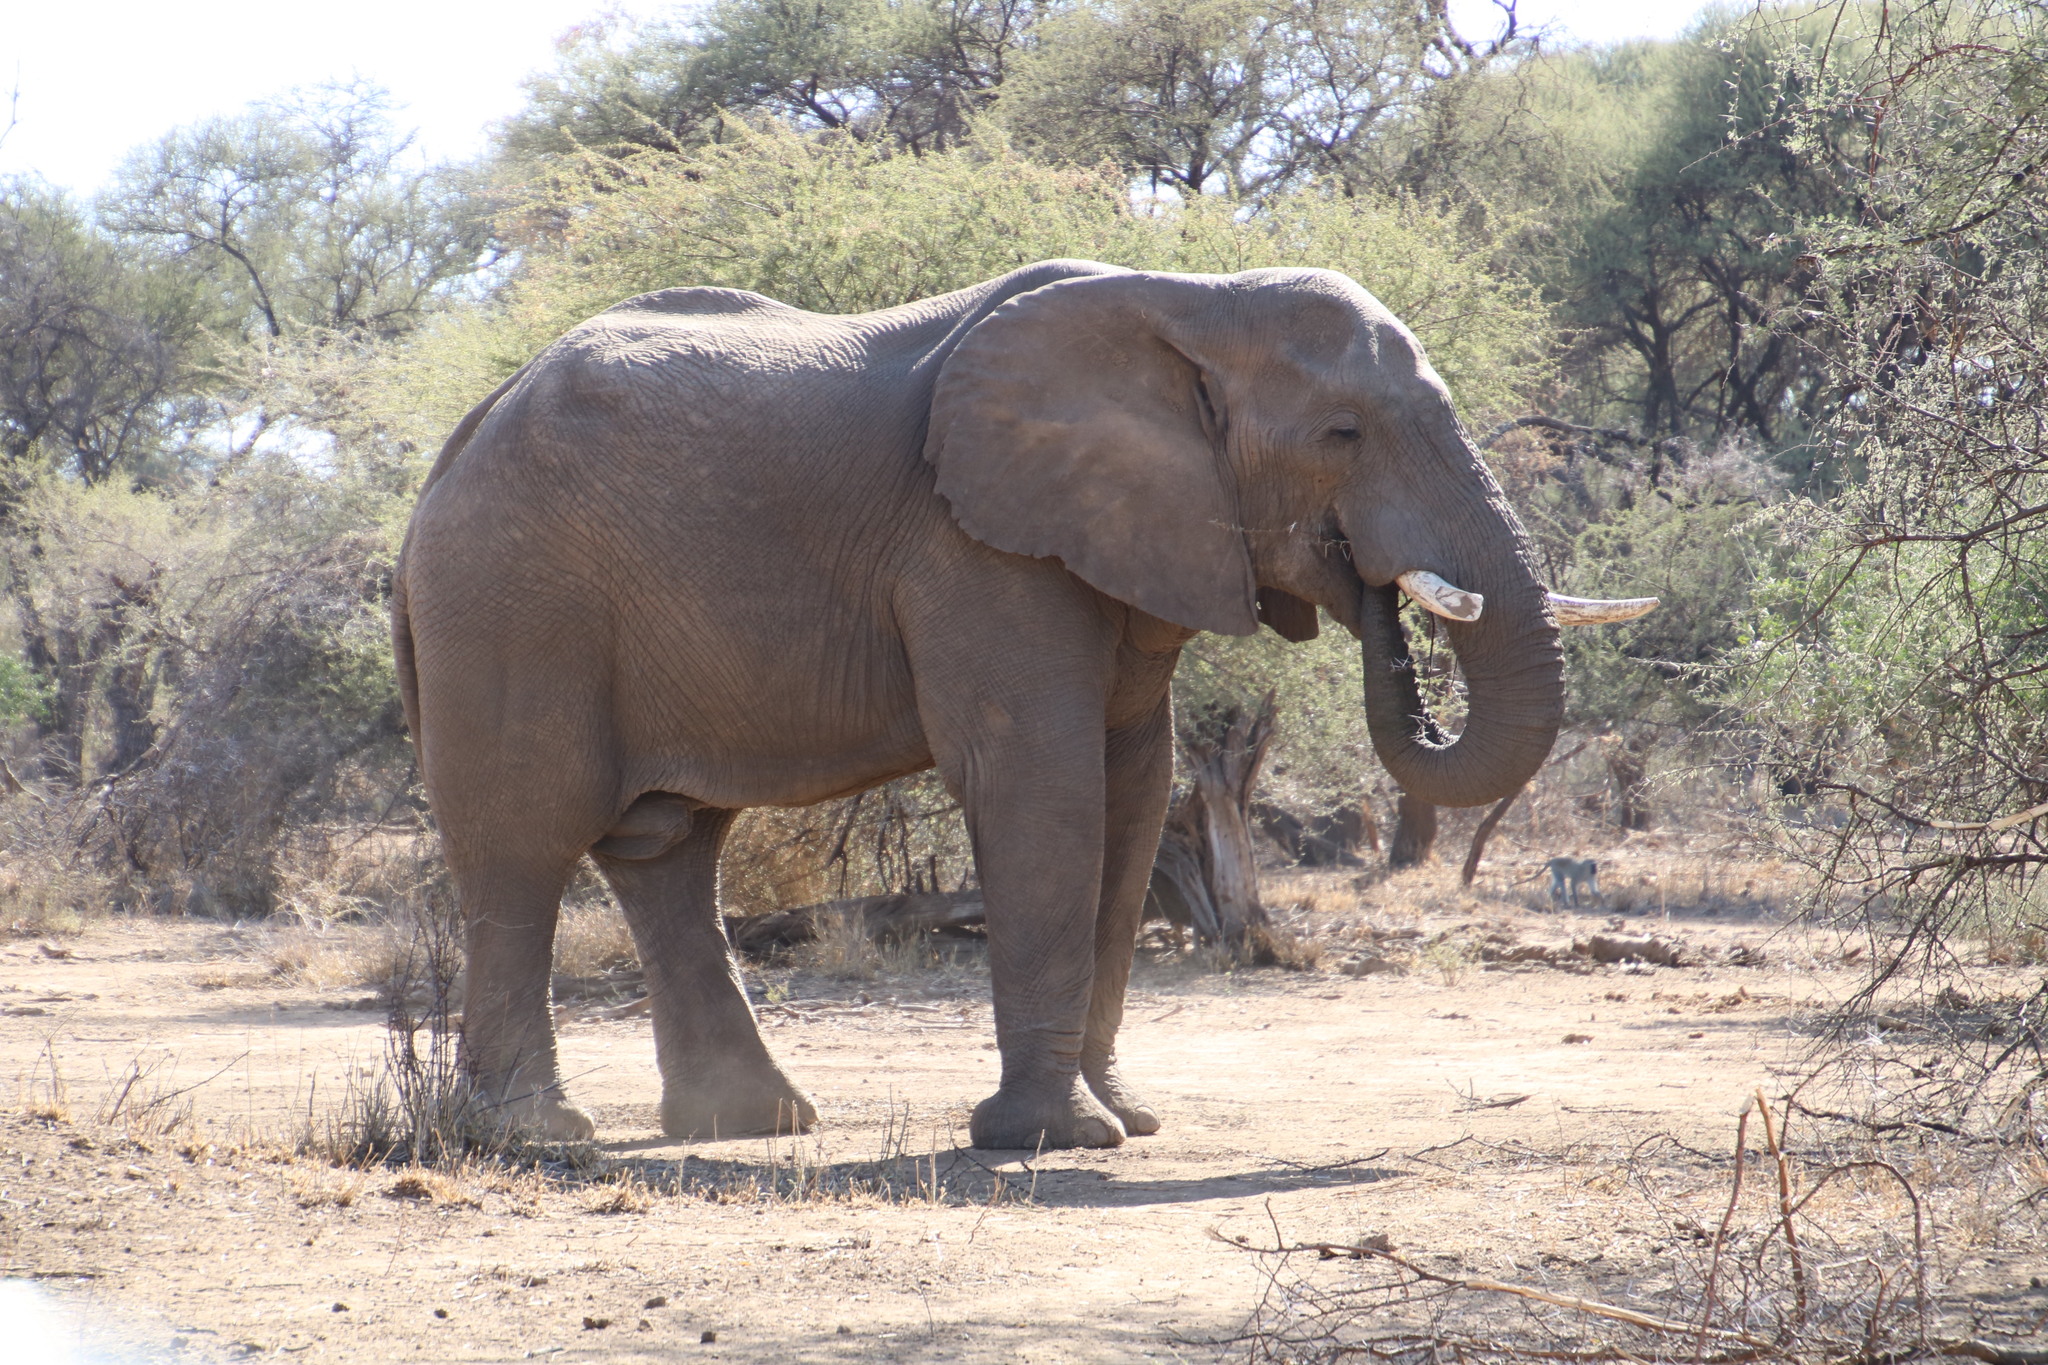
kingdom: Animalia
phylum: Chordata
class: Mammalia
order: Proboscidea
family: Elephantidae
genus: Loxodonta
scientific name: Loxodonta africana
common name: African elephant
